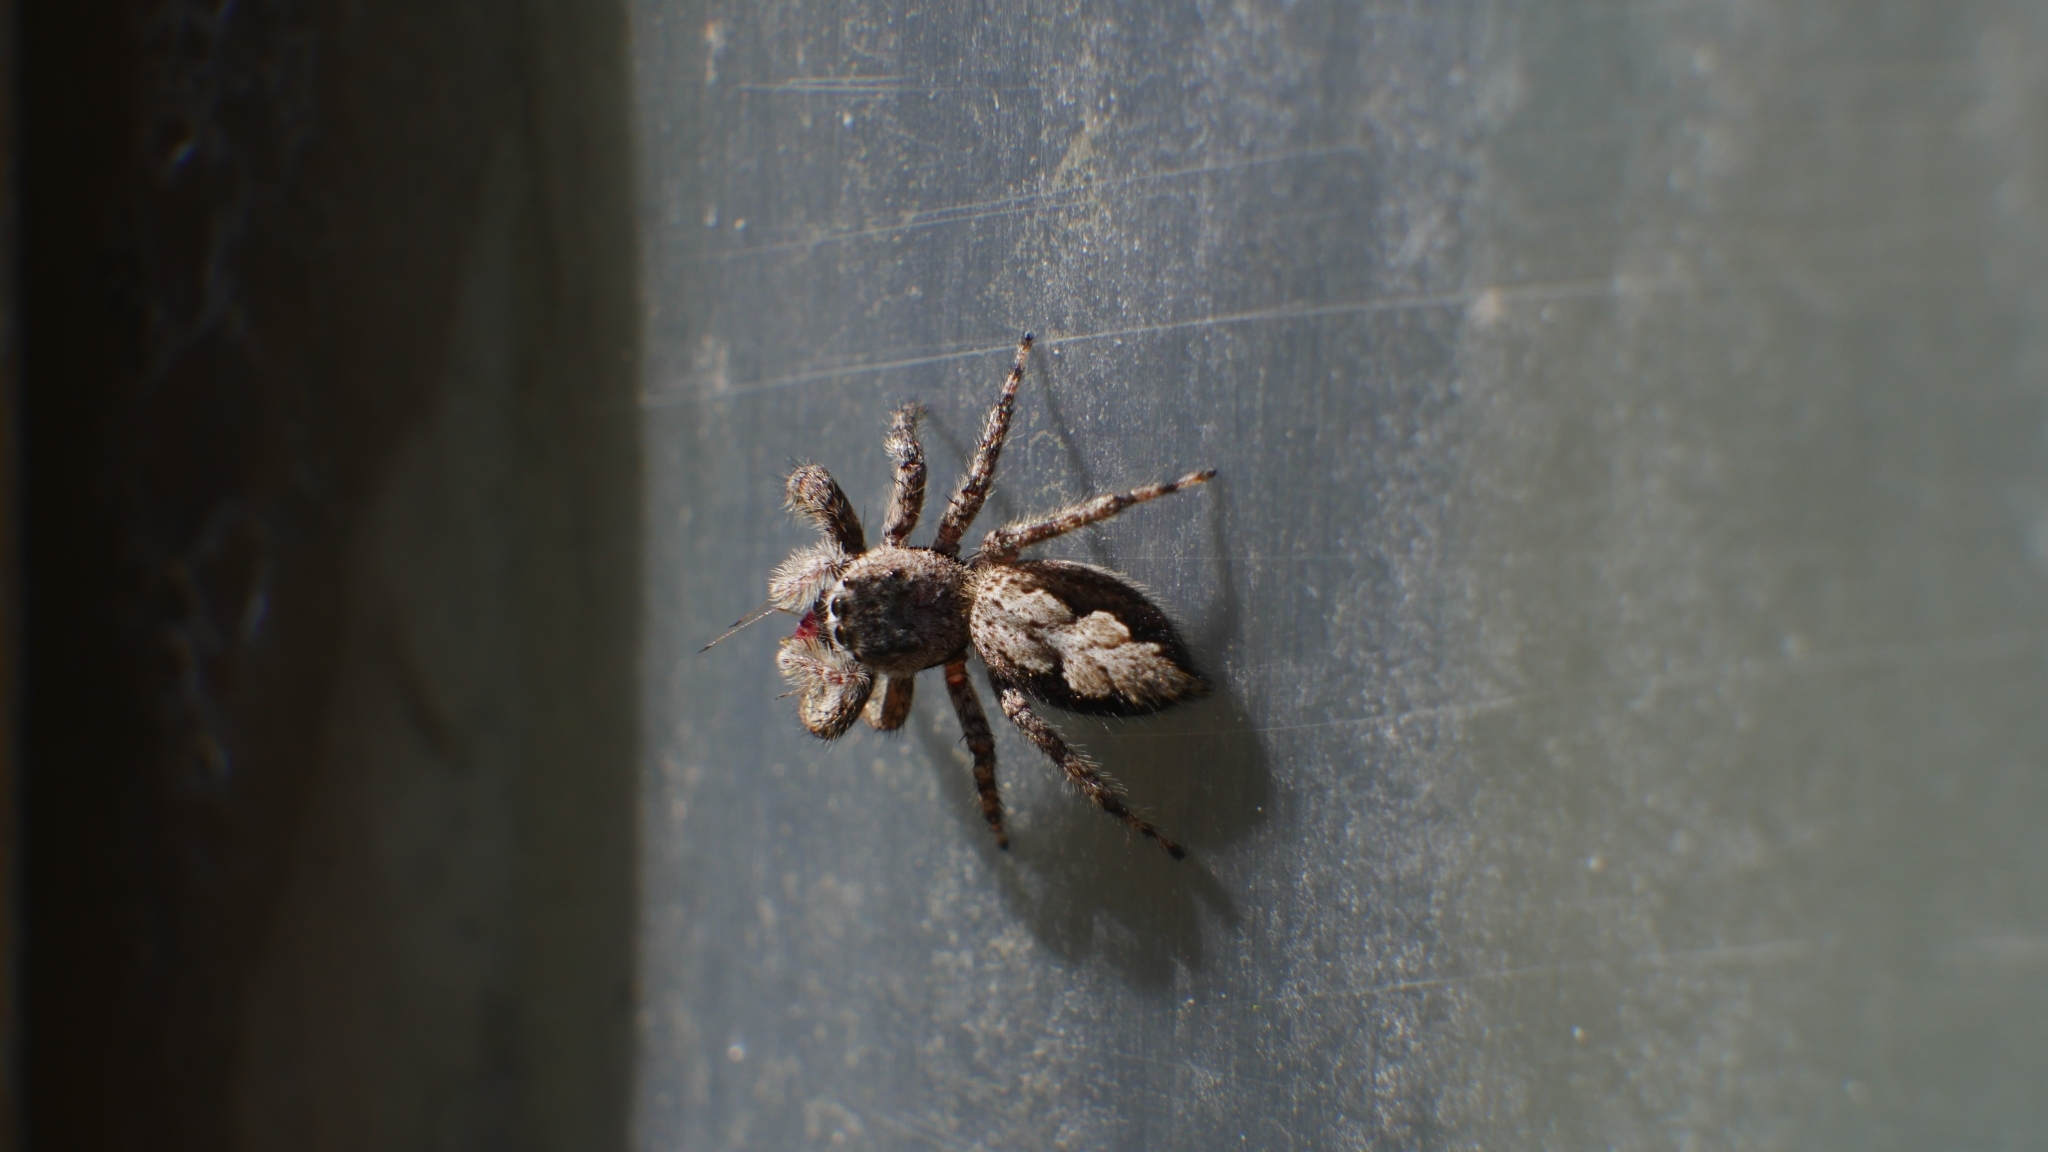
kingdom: Animalia
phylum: Arthropoda
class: Arachnida
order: Araneae
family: Salticidae
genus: Platycryptus
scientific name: Platycryptus undatus
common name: Tan jumping spider
